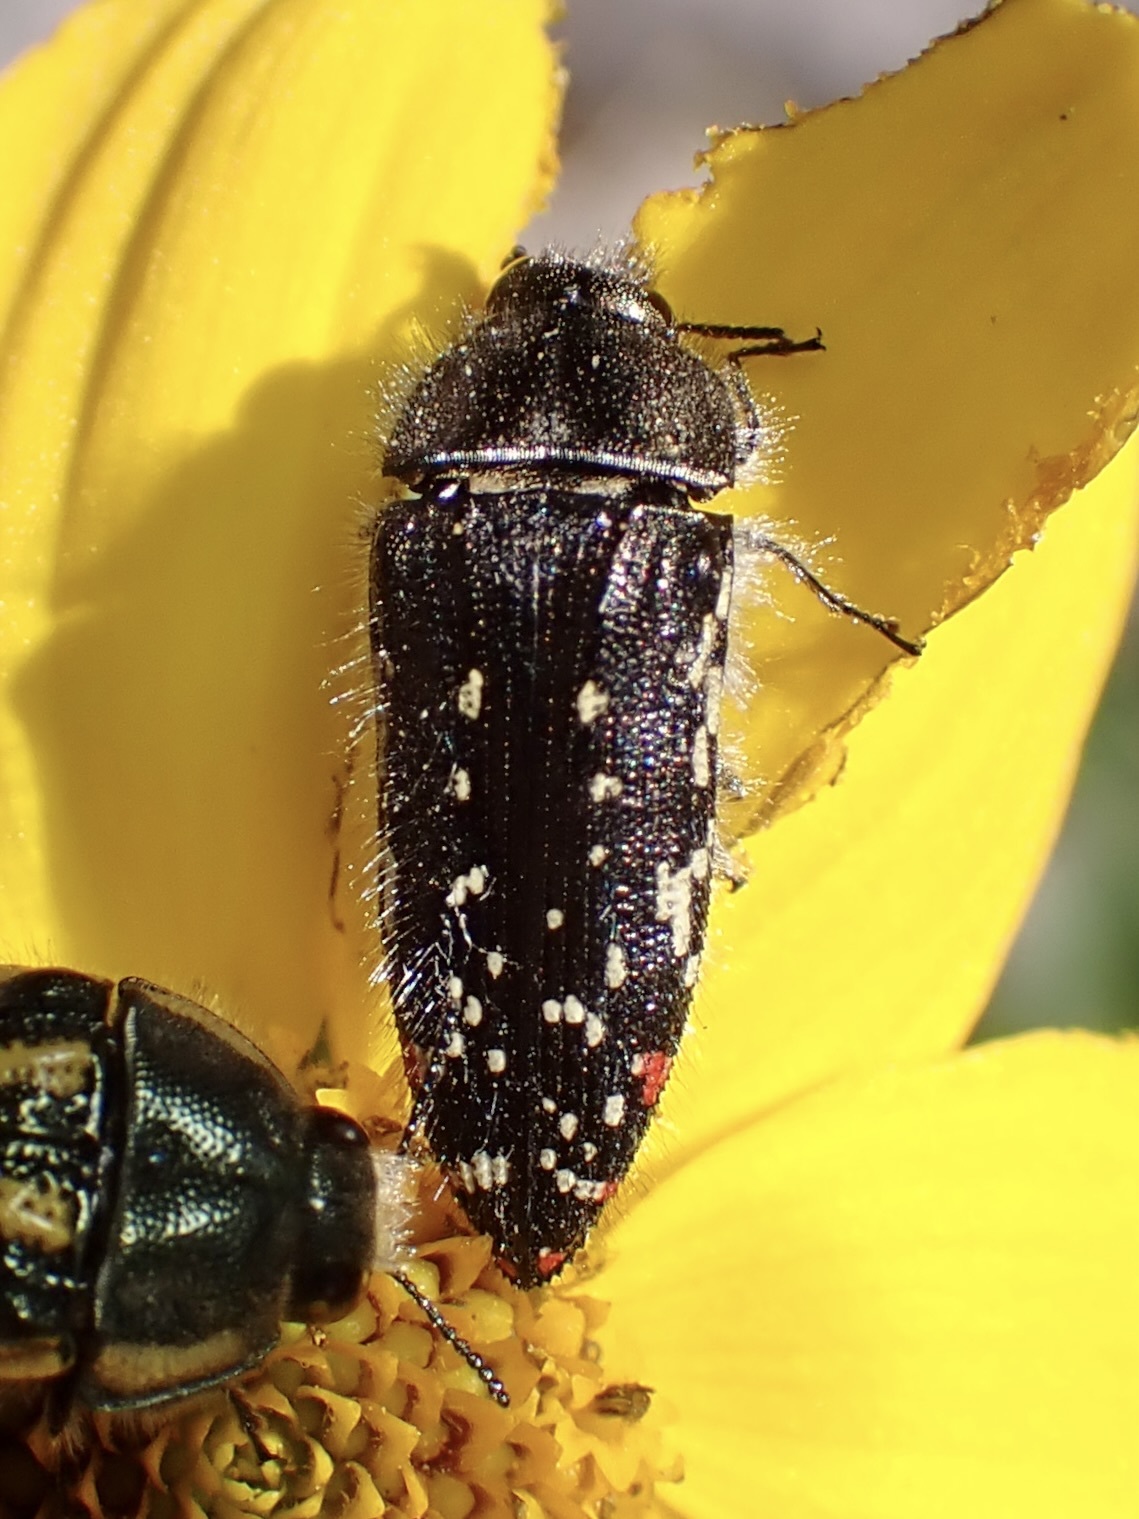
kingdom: Animalia
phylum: Arthropoda
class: Insecta
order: Coleoptera
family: Buprestidae
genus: Acmaeodera
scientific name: Acmaeodera rubronotata
